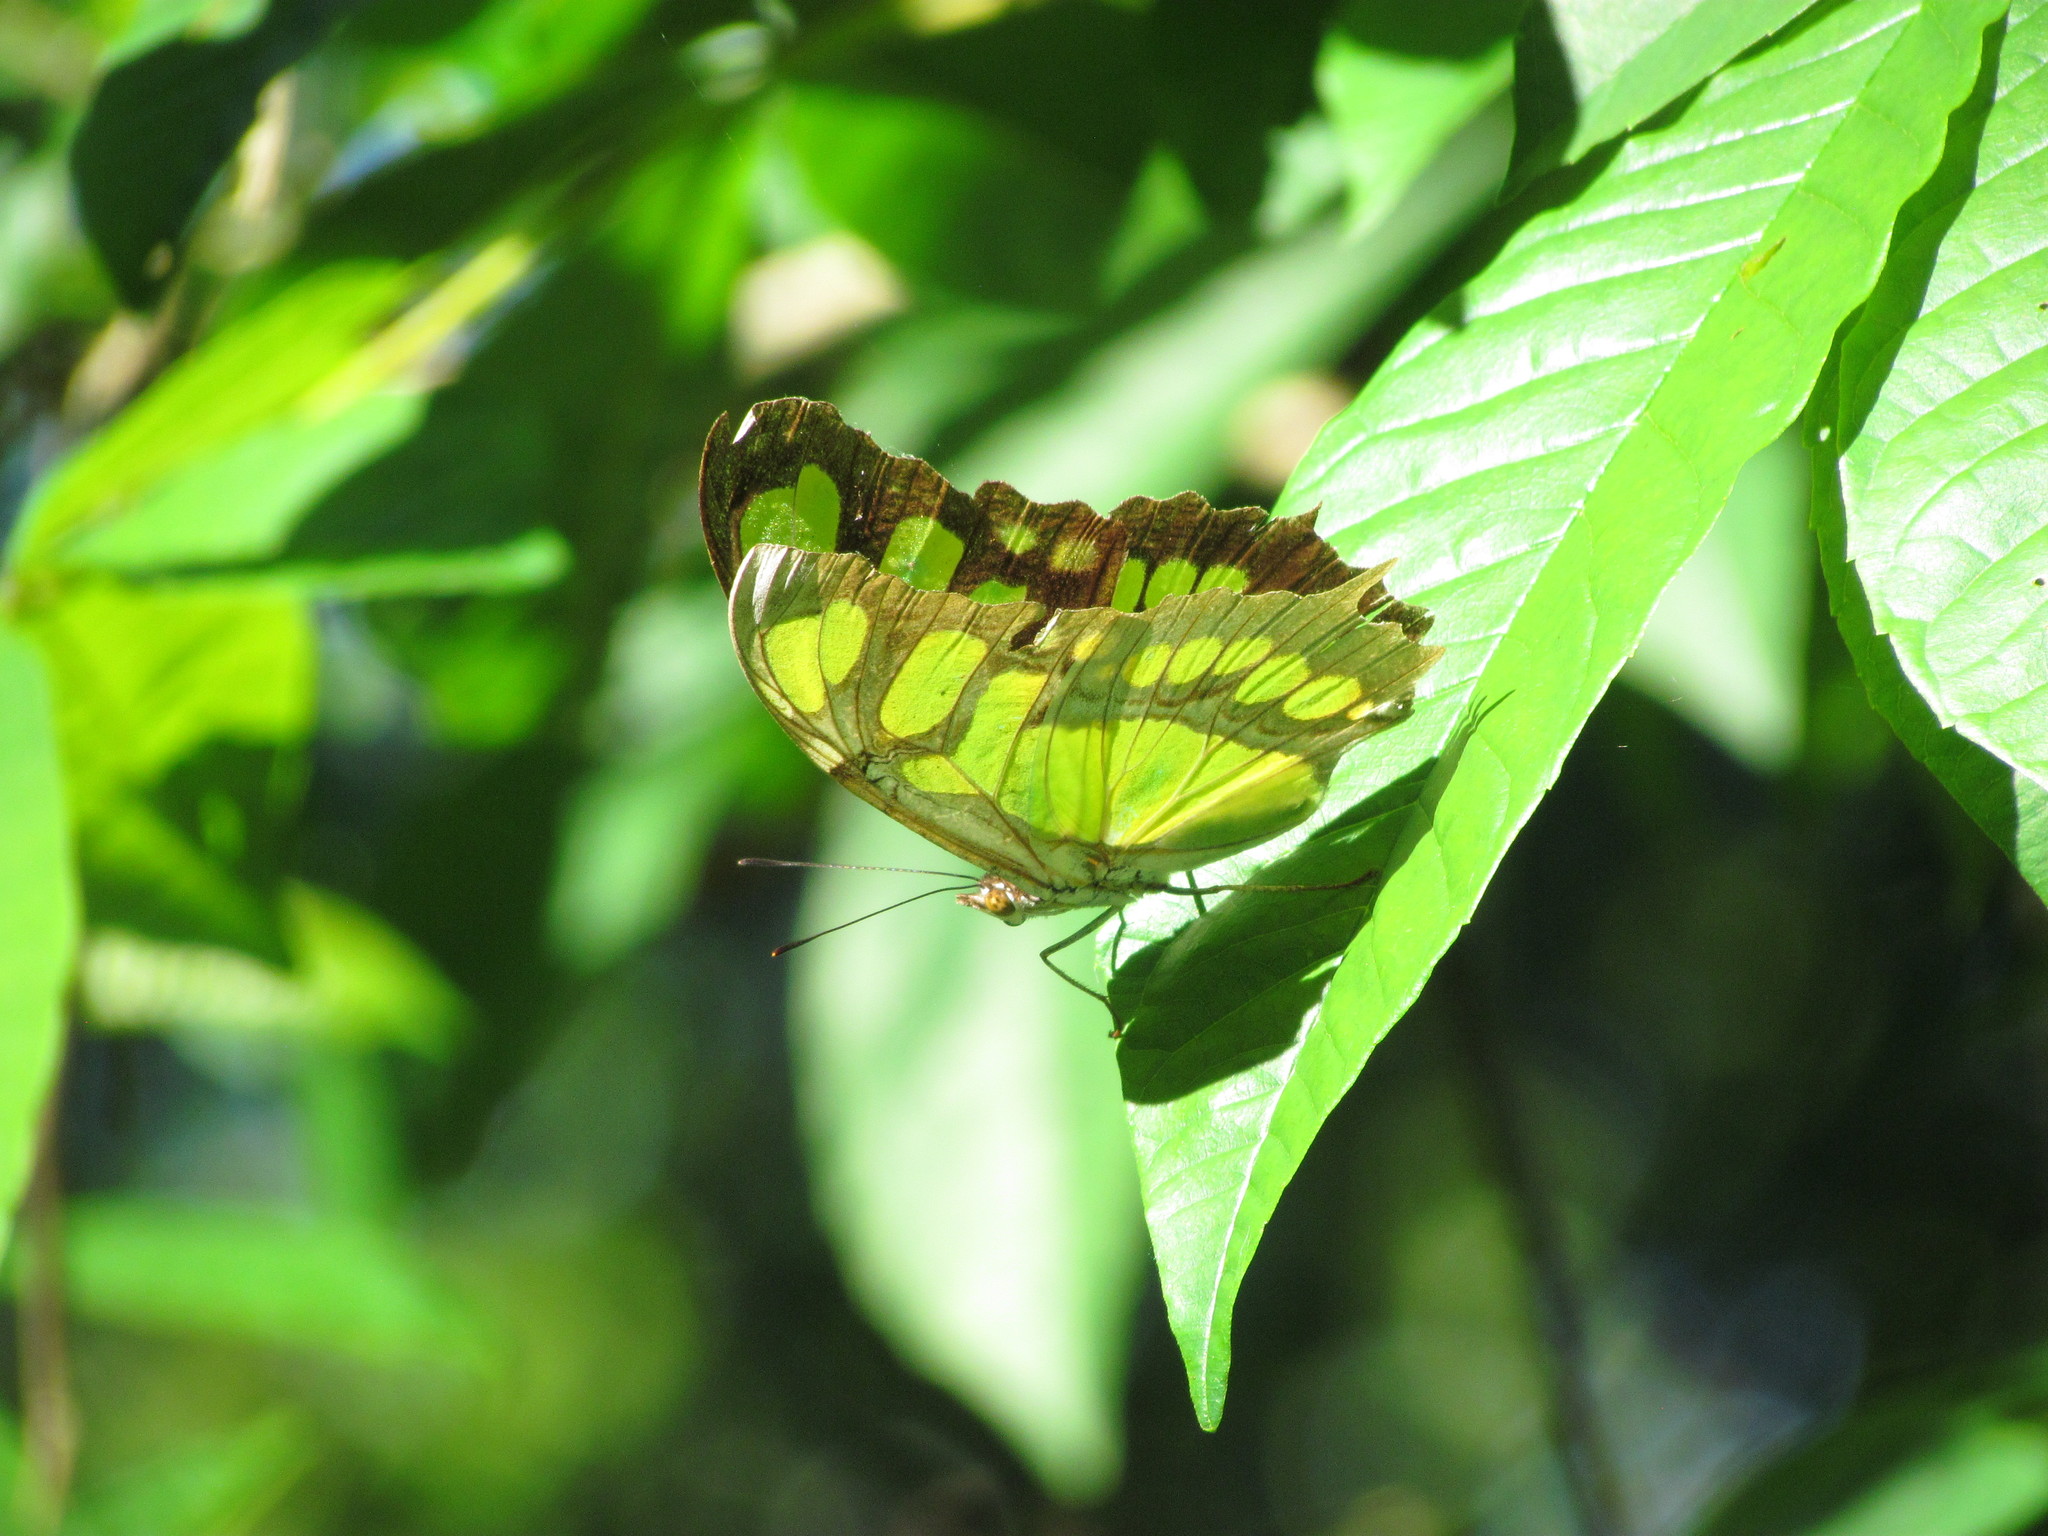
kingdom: Animalia
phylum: Arthropoda
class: Insecta
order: Lepidoptera
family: Nymphalidae
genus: Siproeta
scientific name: Siproeta stelenes
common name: Malachite
